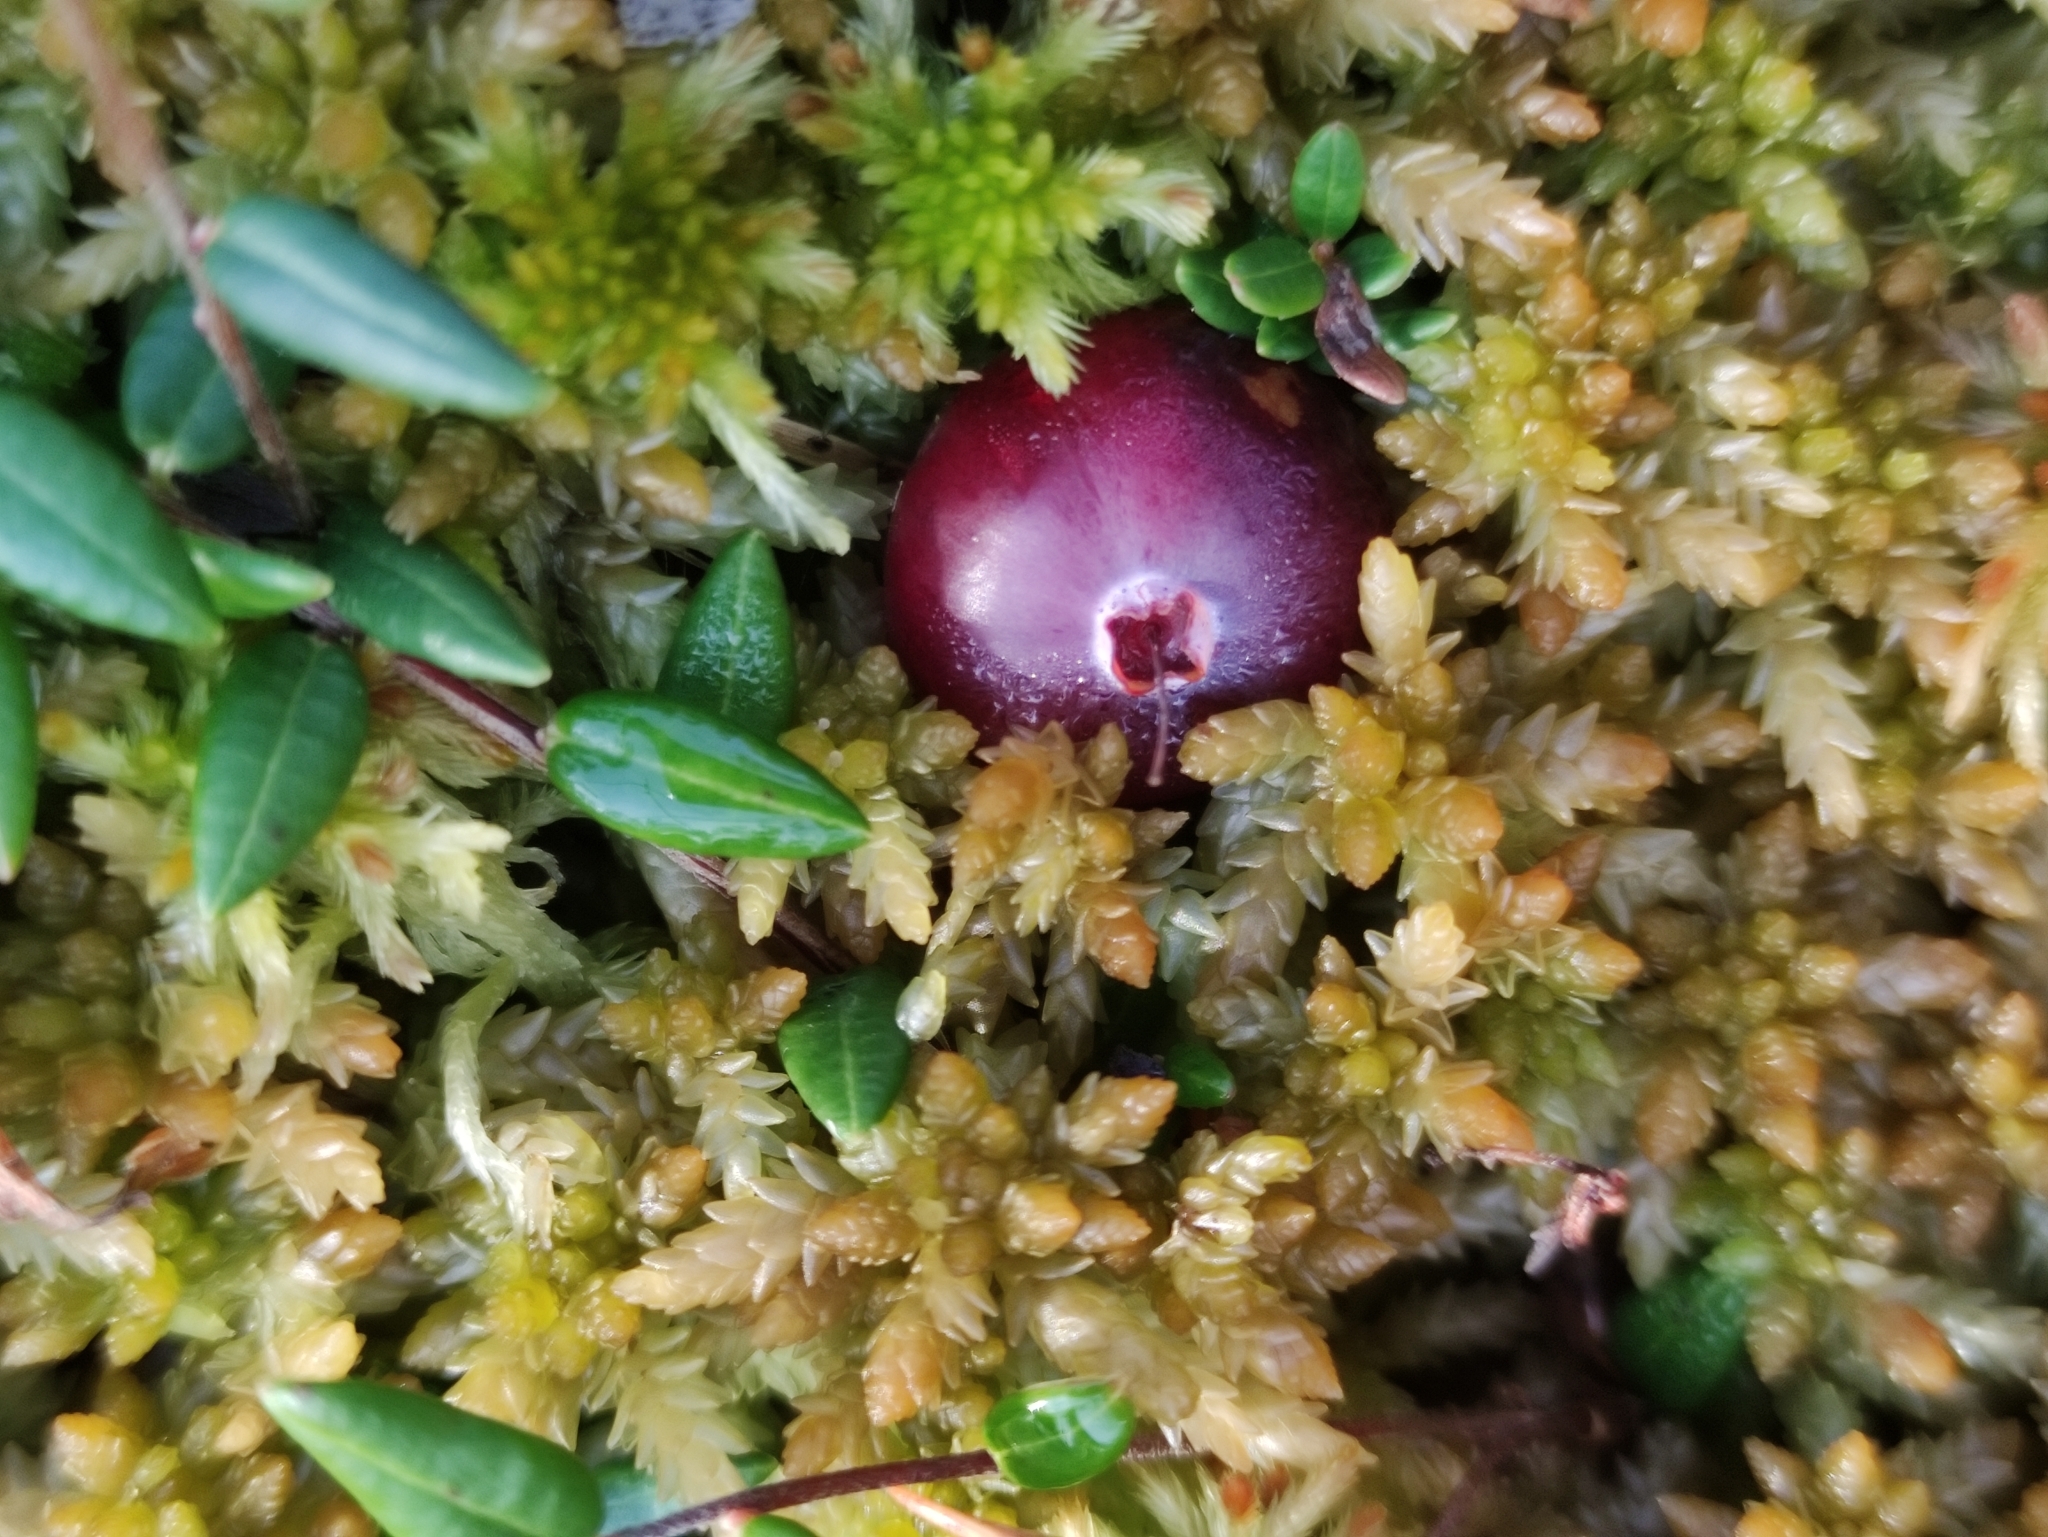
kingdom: Plantae
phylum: Tracheophyta
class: Magnoliopsida
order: Ericales
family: Ericaceae
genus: Vaccinium
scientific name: Vaccinium oxycoccos
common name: Cranberry
